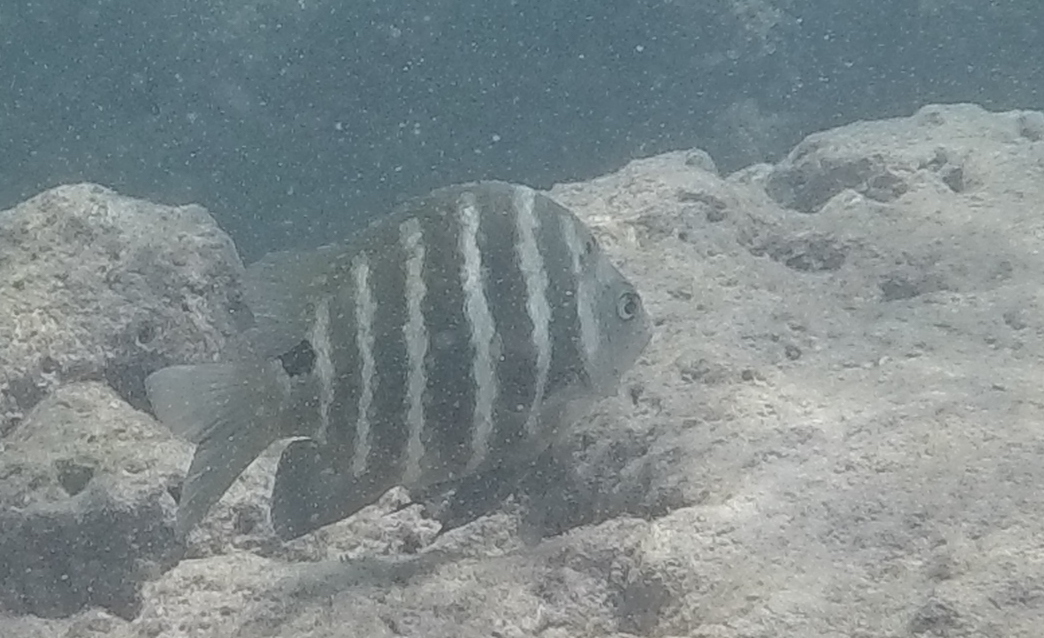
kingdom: Animalia
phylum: Chordata
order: Perciformes
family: Pomacentridae
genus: Abudefduf
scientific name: Abudefduf sordidus
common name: Blackspot sergeant
